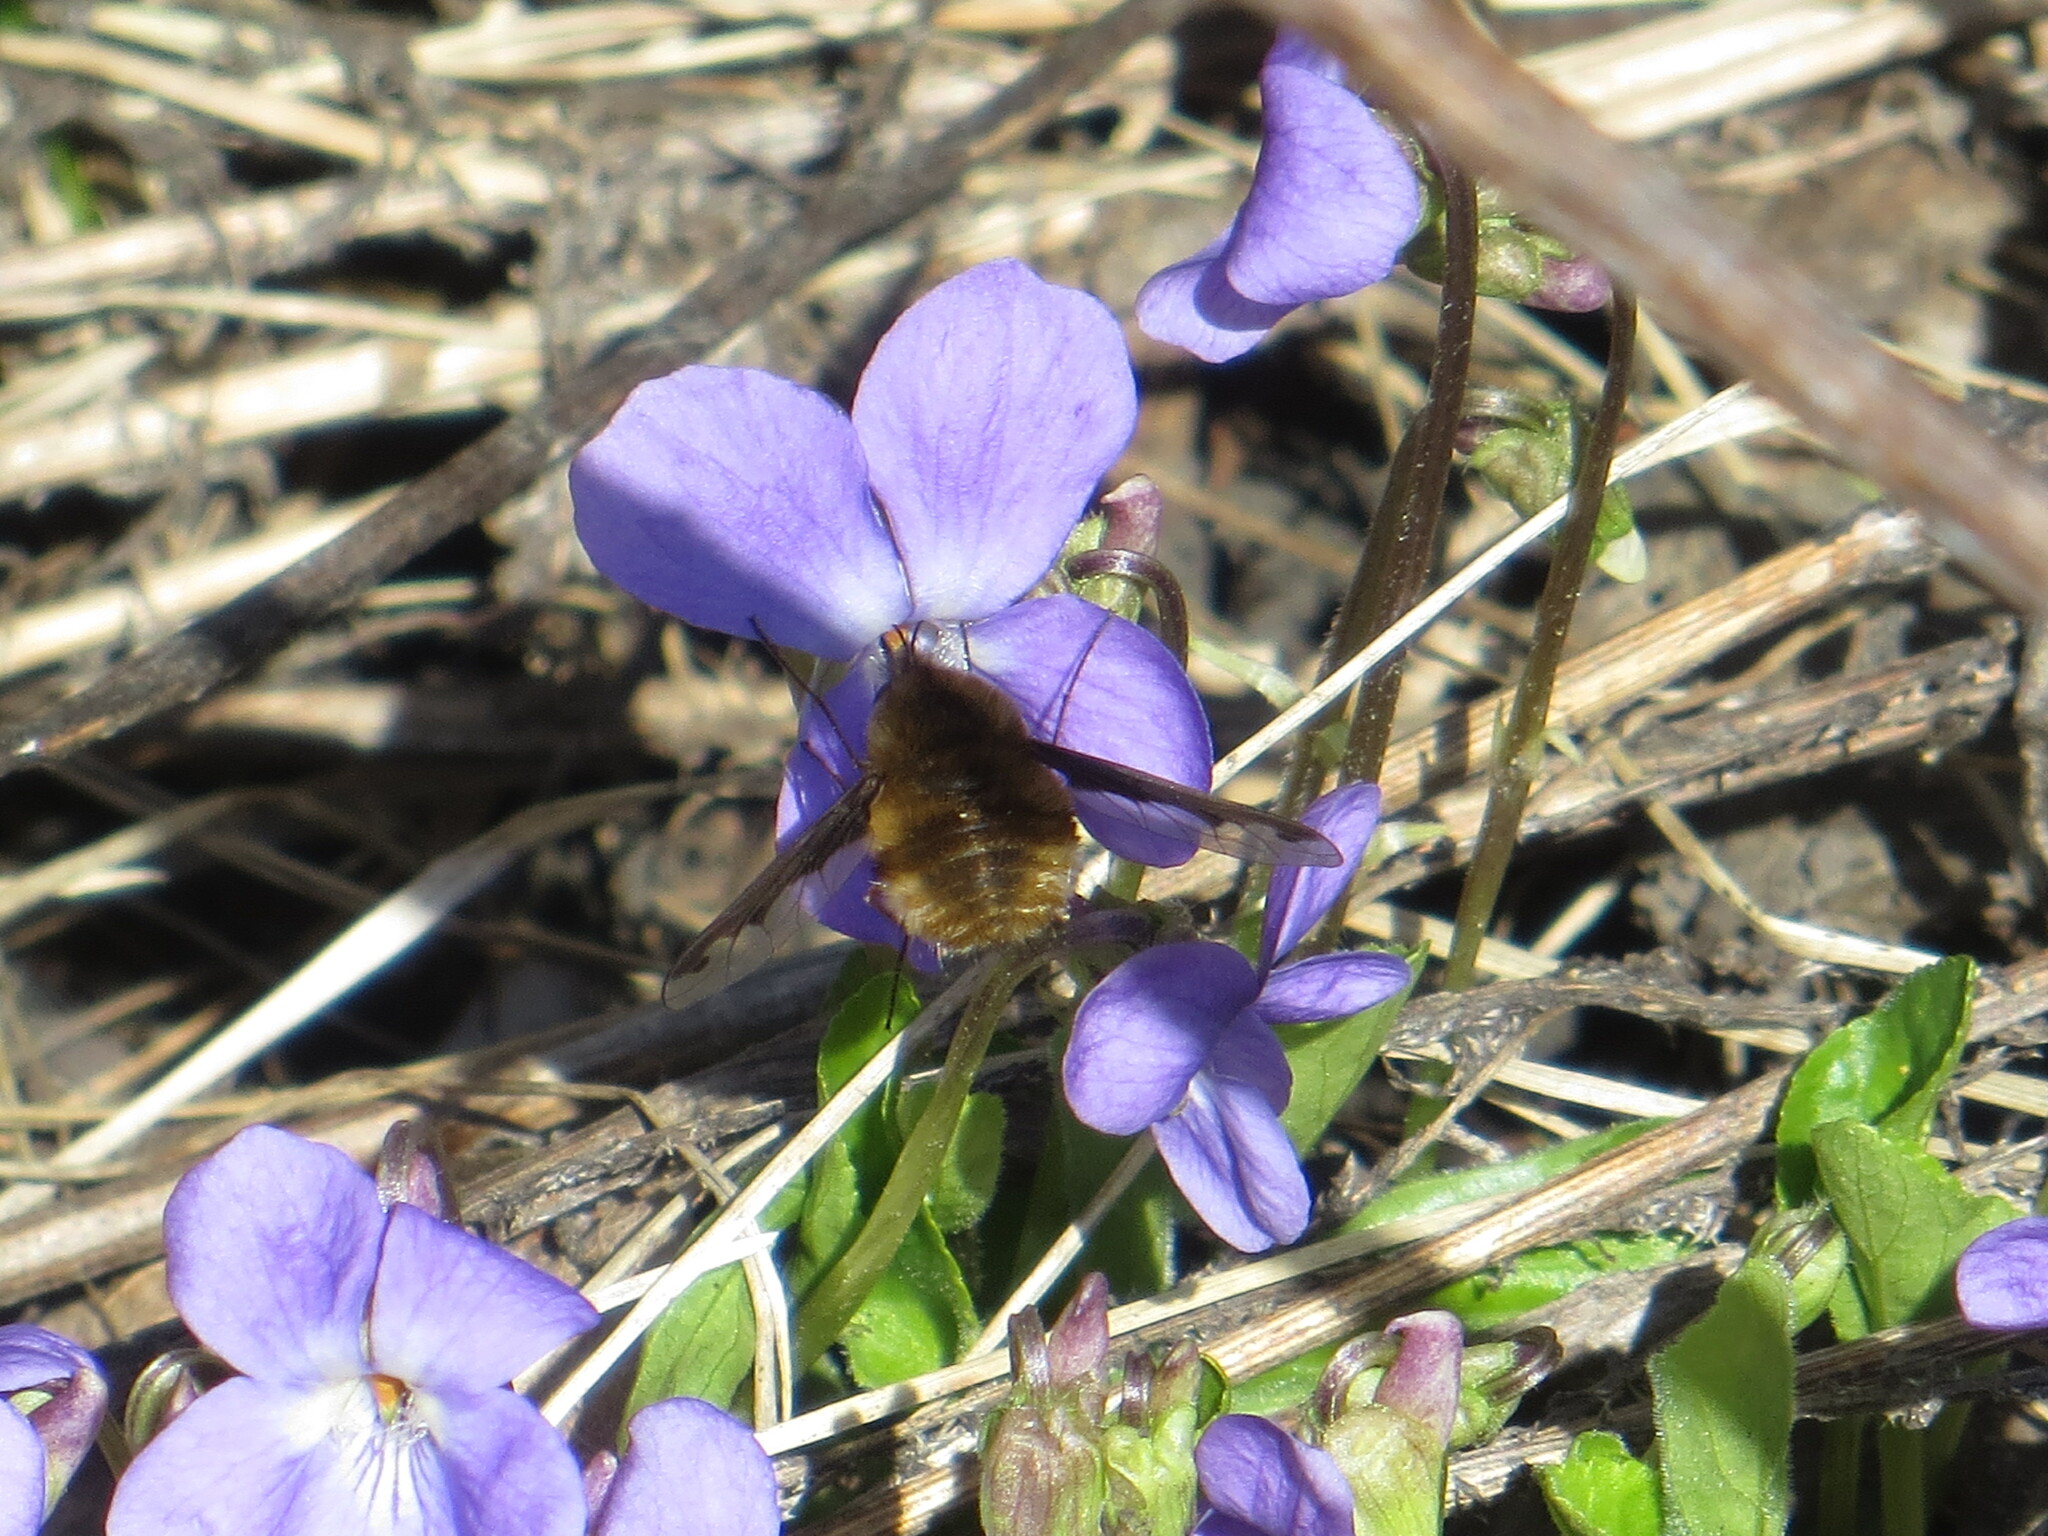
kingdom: Animalia
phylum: Arthropoda
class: Insecta
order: Diptera
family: Bombyliidae
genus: Bombylius
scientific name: Bombylius major
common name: Bee fly
